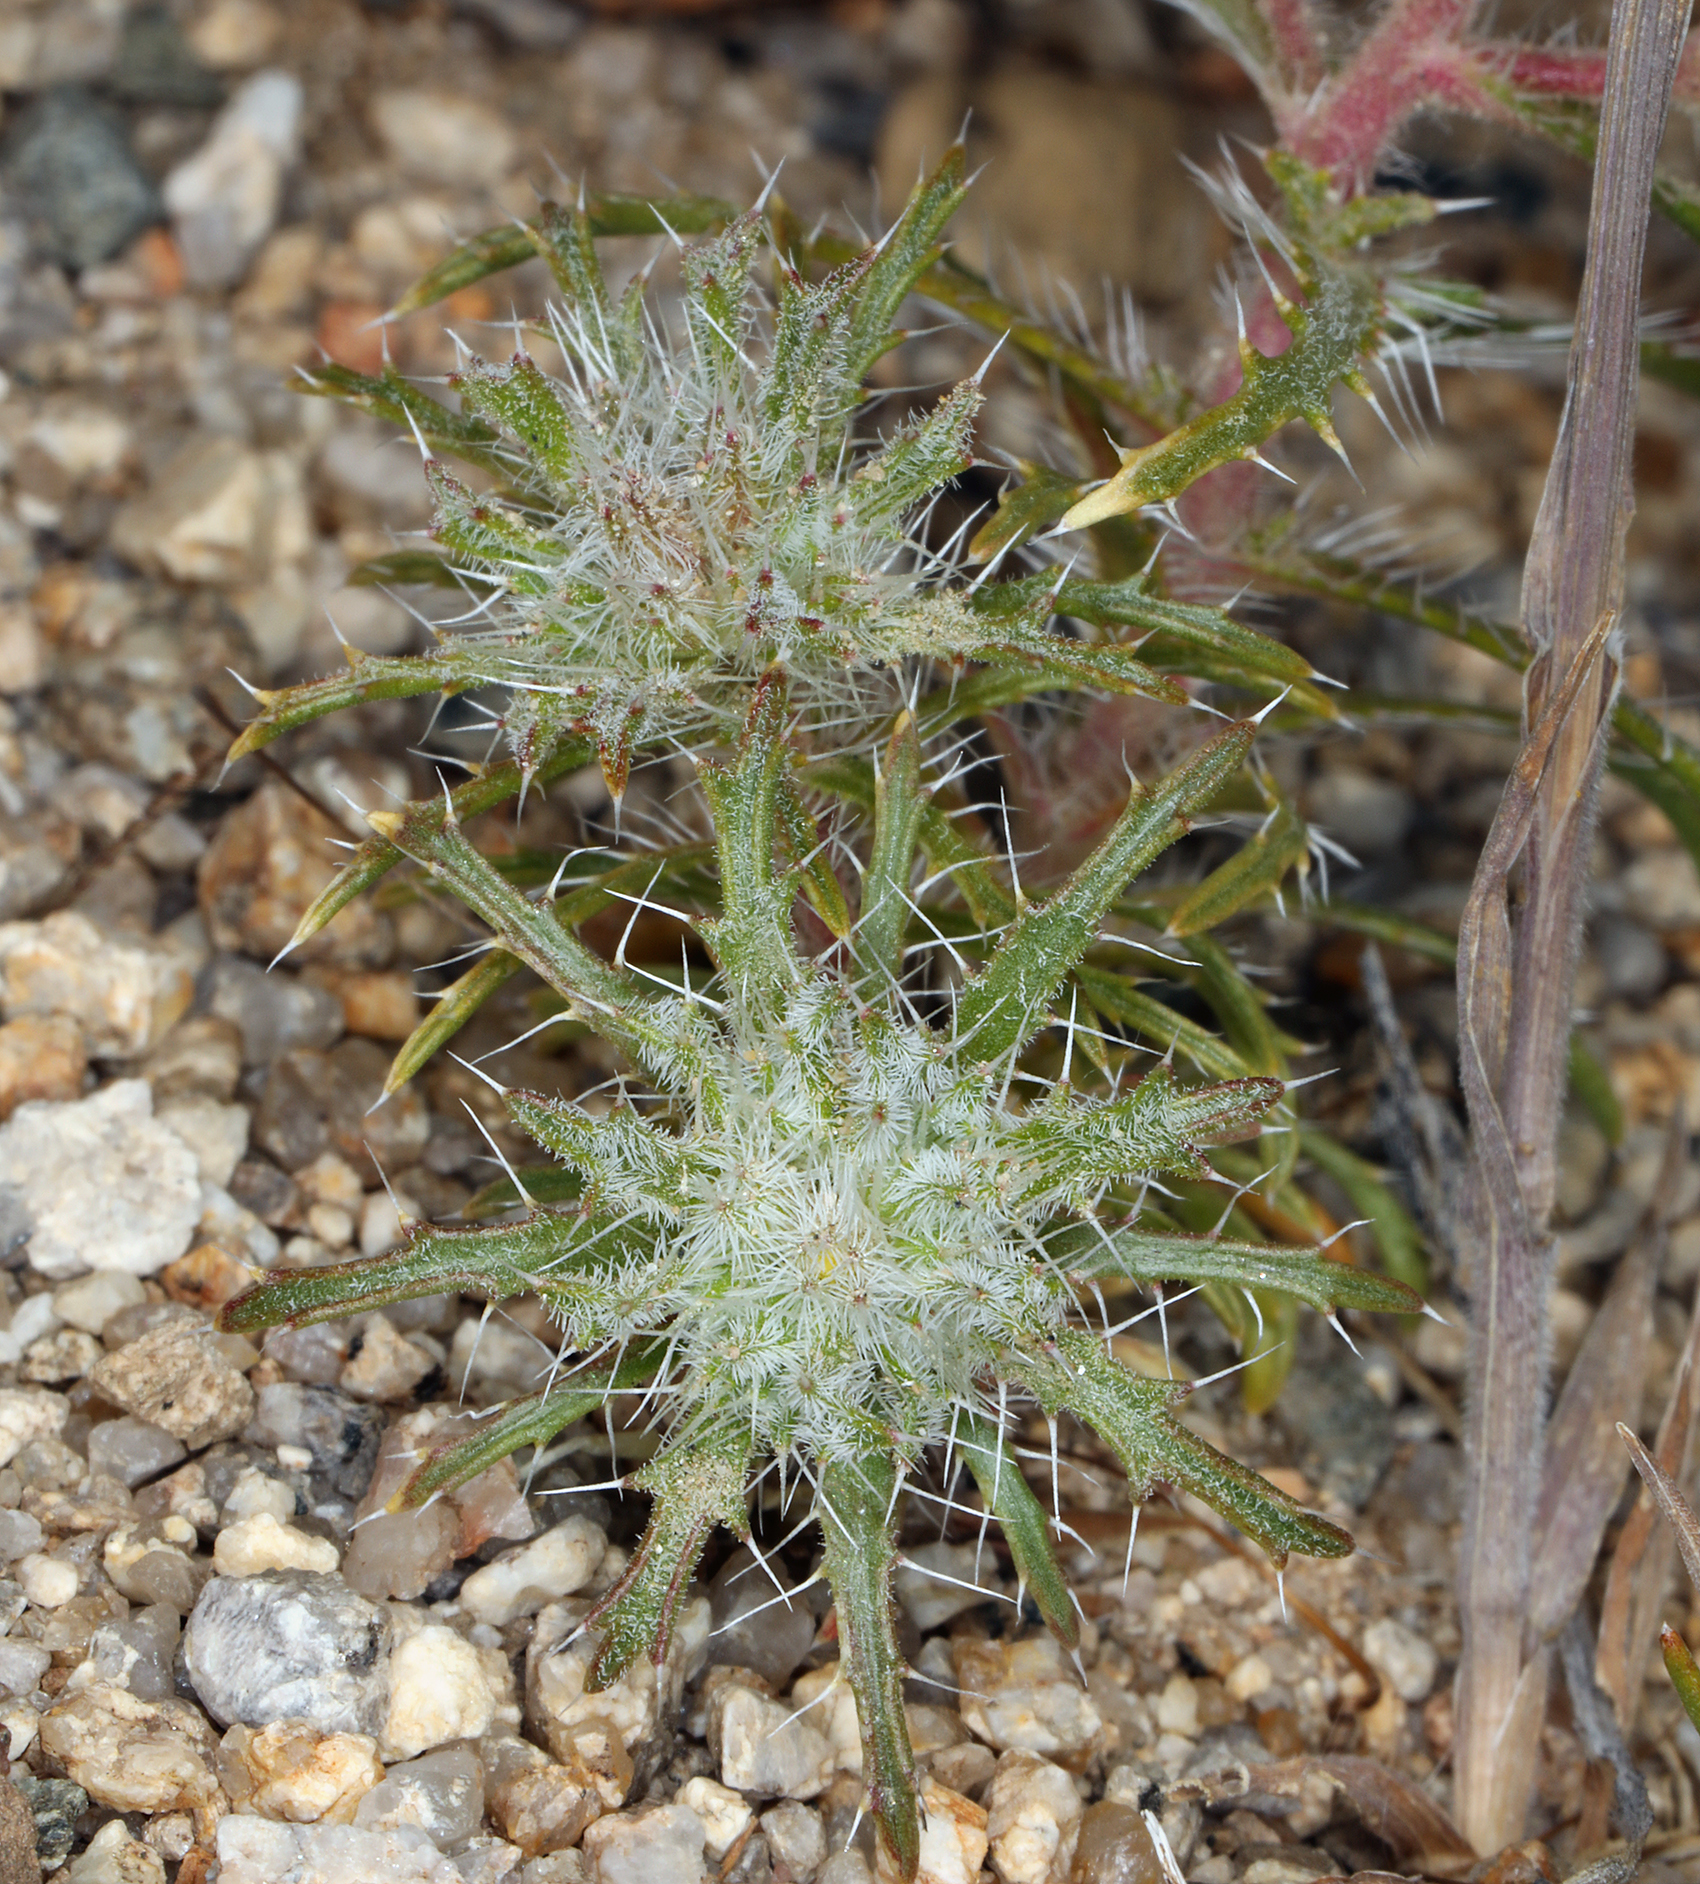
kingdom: Plantae
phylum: Tracheophyta
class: Magnoliopsida
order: Ericales
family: Polemoniaceae
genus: Loeseliastrum
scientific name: Loeseliastrum matthewsii
